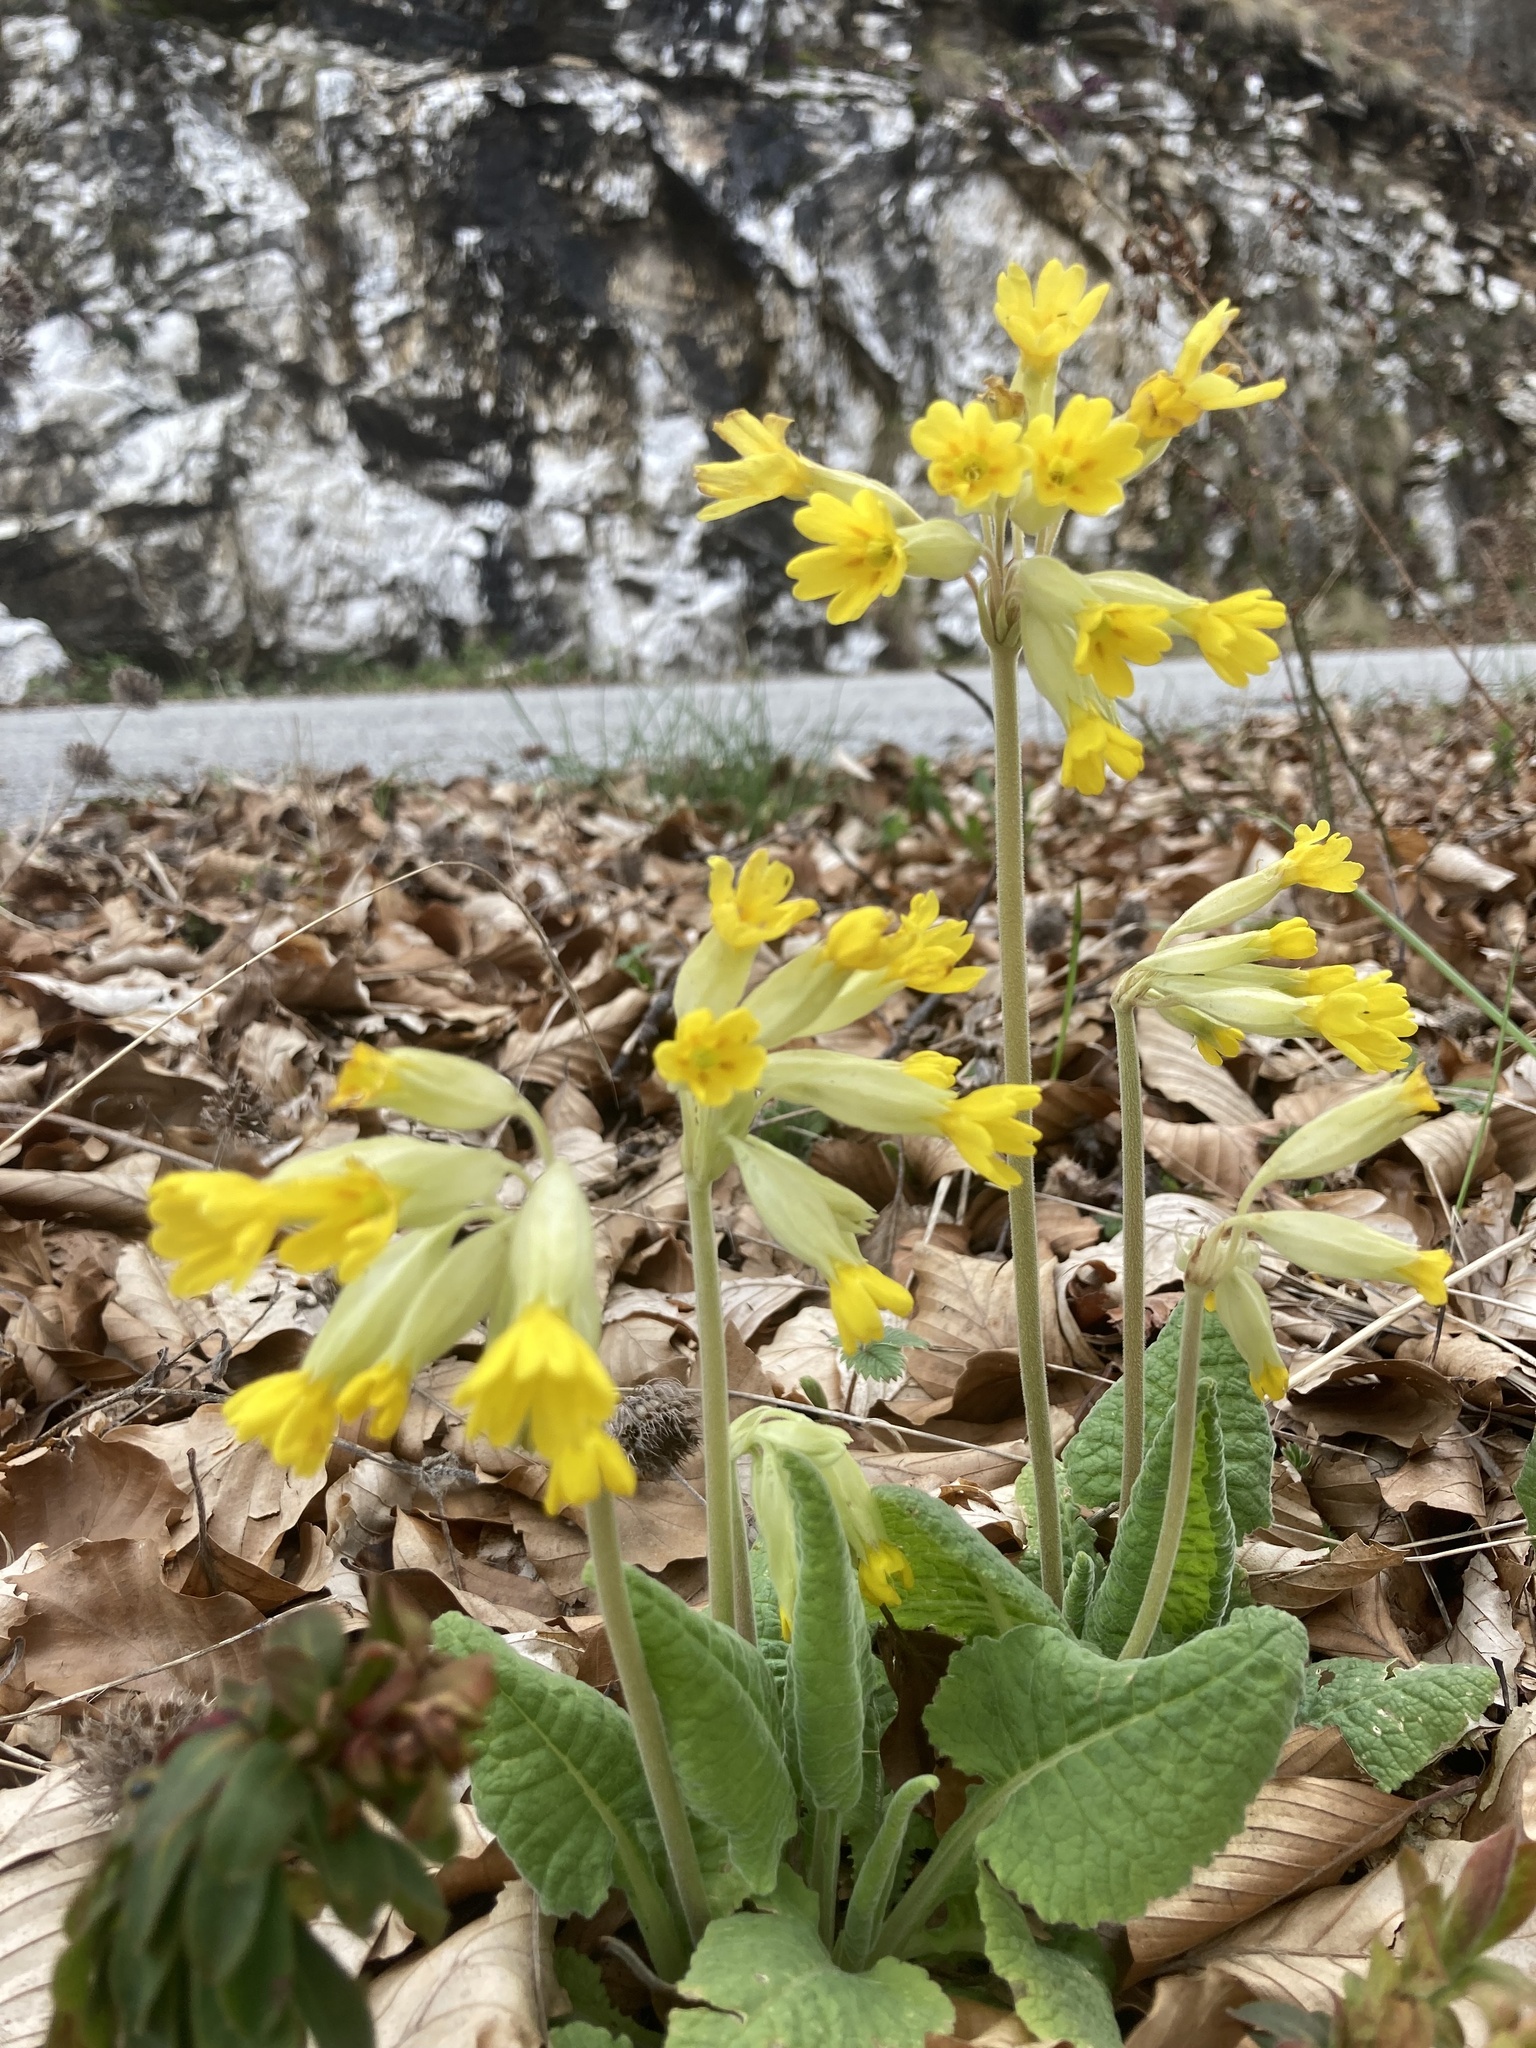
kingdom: Plantae
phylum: Tracheophyta
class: Magnoliopsida
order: Ericales
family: Primulaceae
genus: Primula
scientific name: Primula veris
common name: Cowslip
